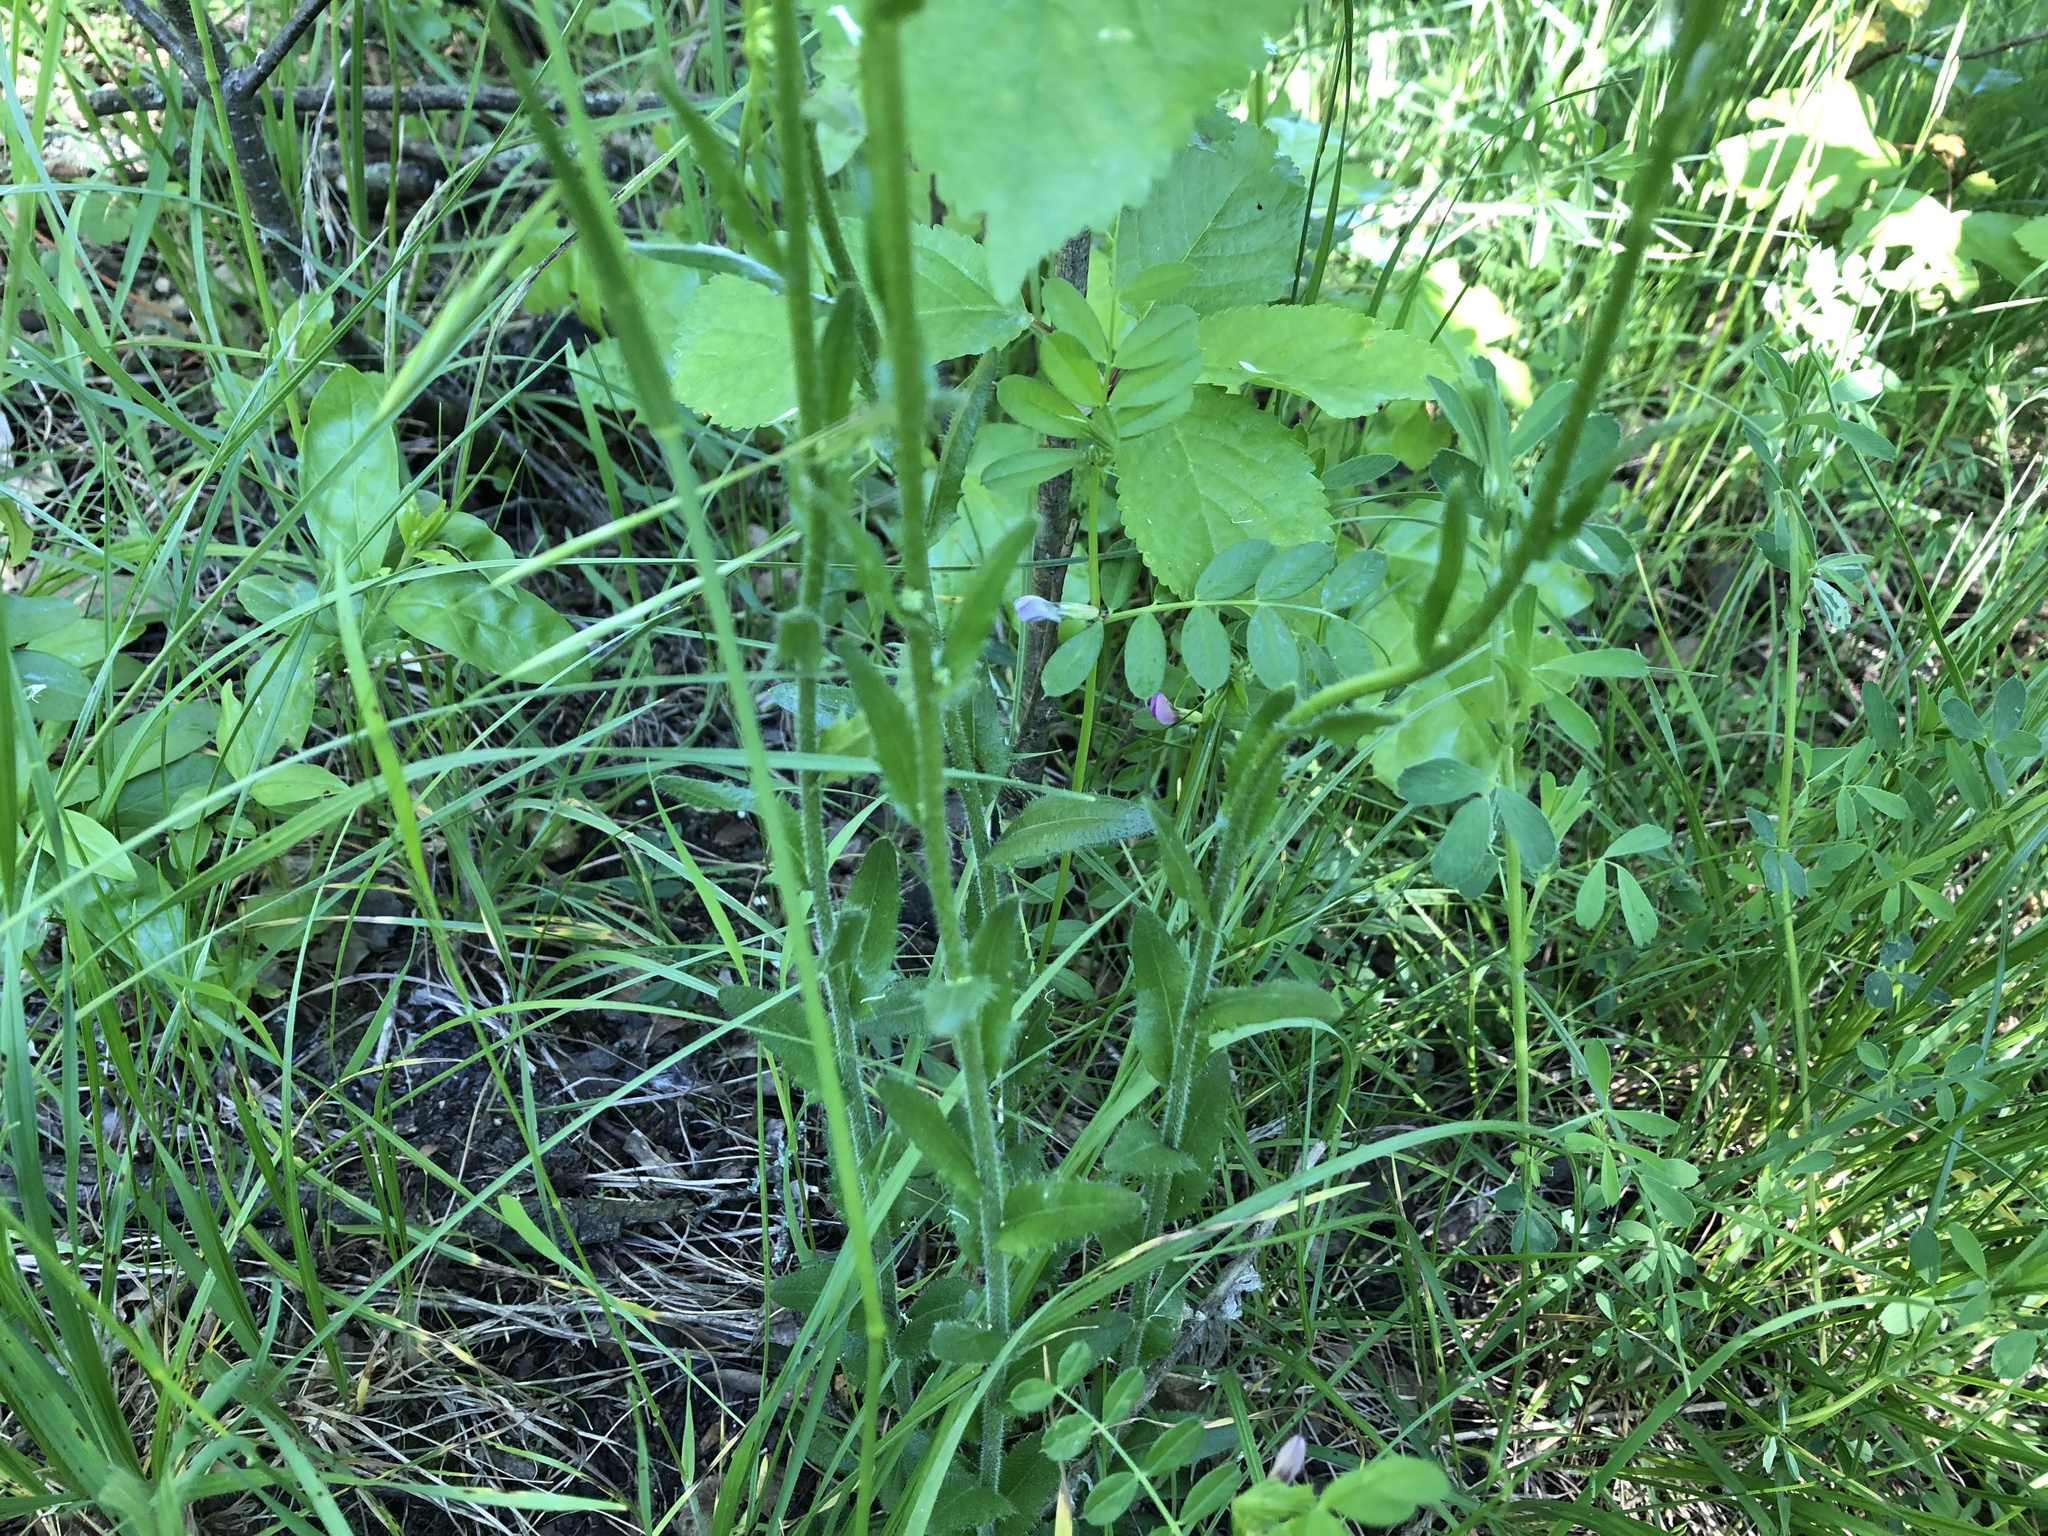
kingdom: Plantae
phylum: Tracheophyta
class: Magnoliopsida
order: Brassicales
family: Brassicaceae
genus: Arabis
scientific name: Arabis hirsuta
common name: Hairy rock-cress
